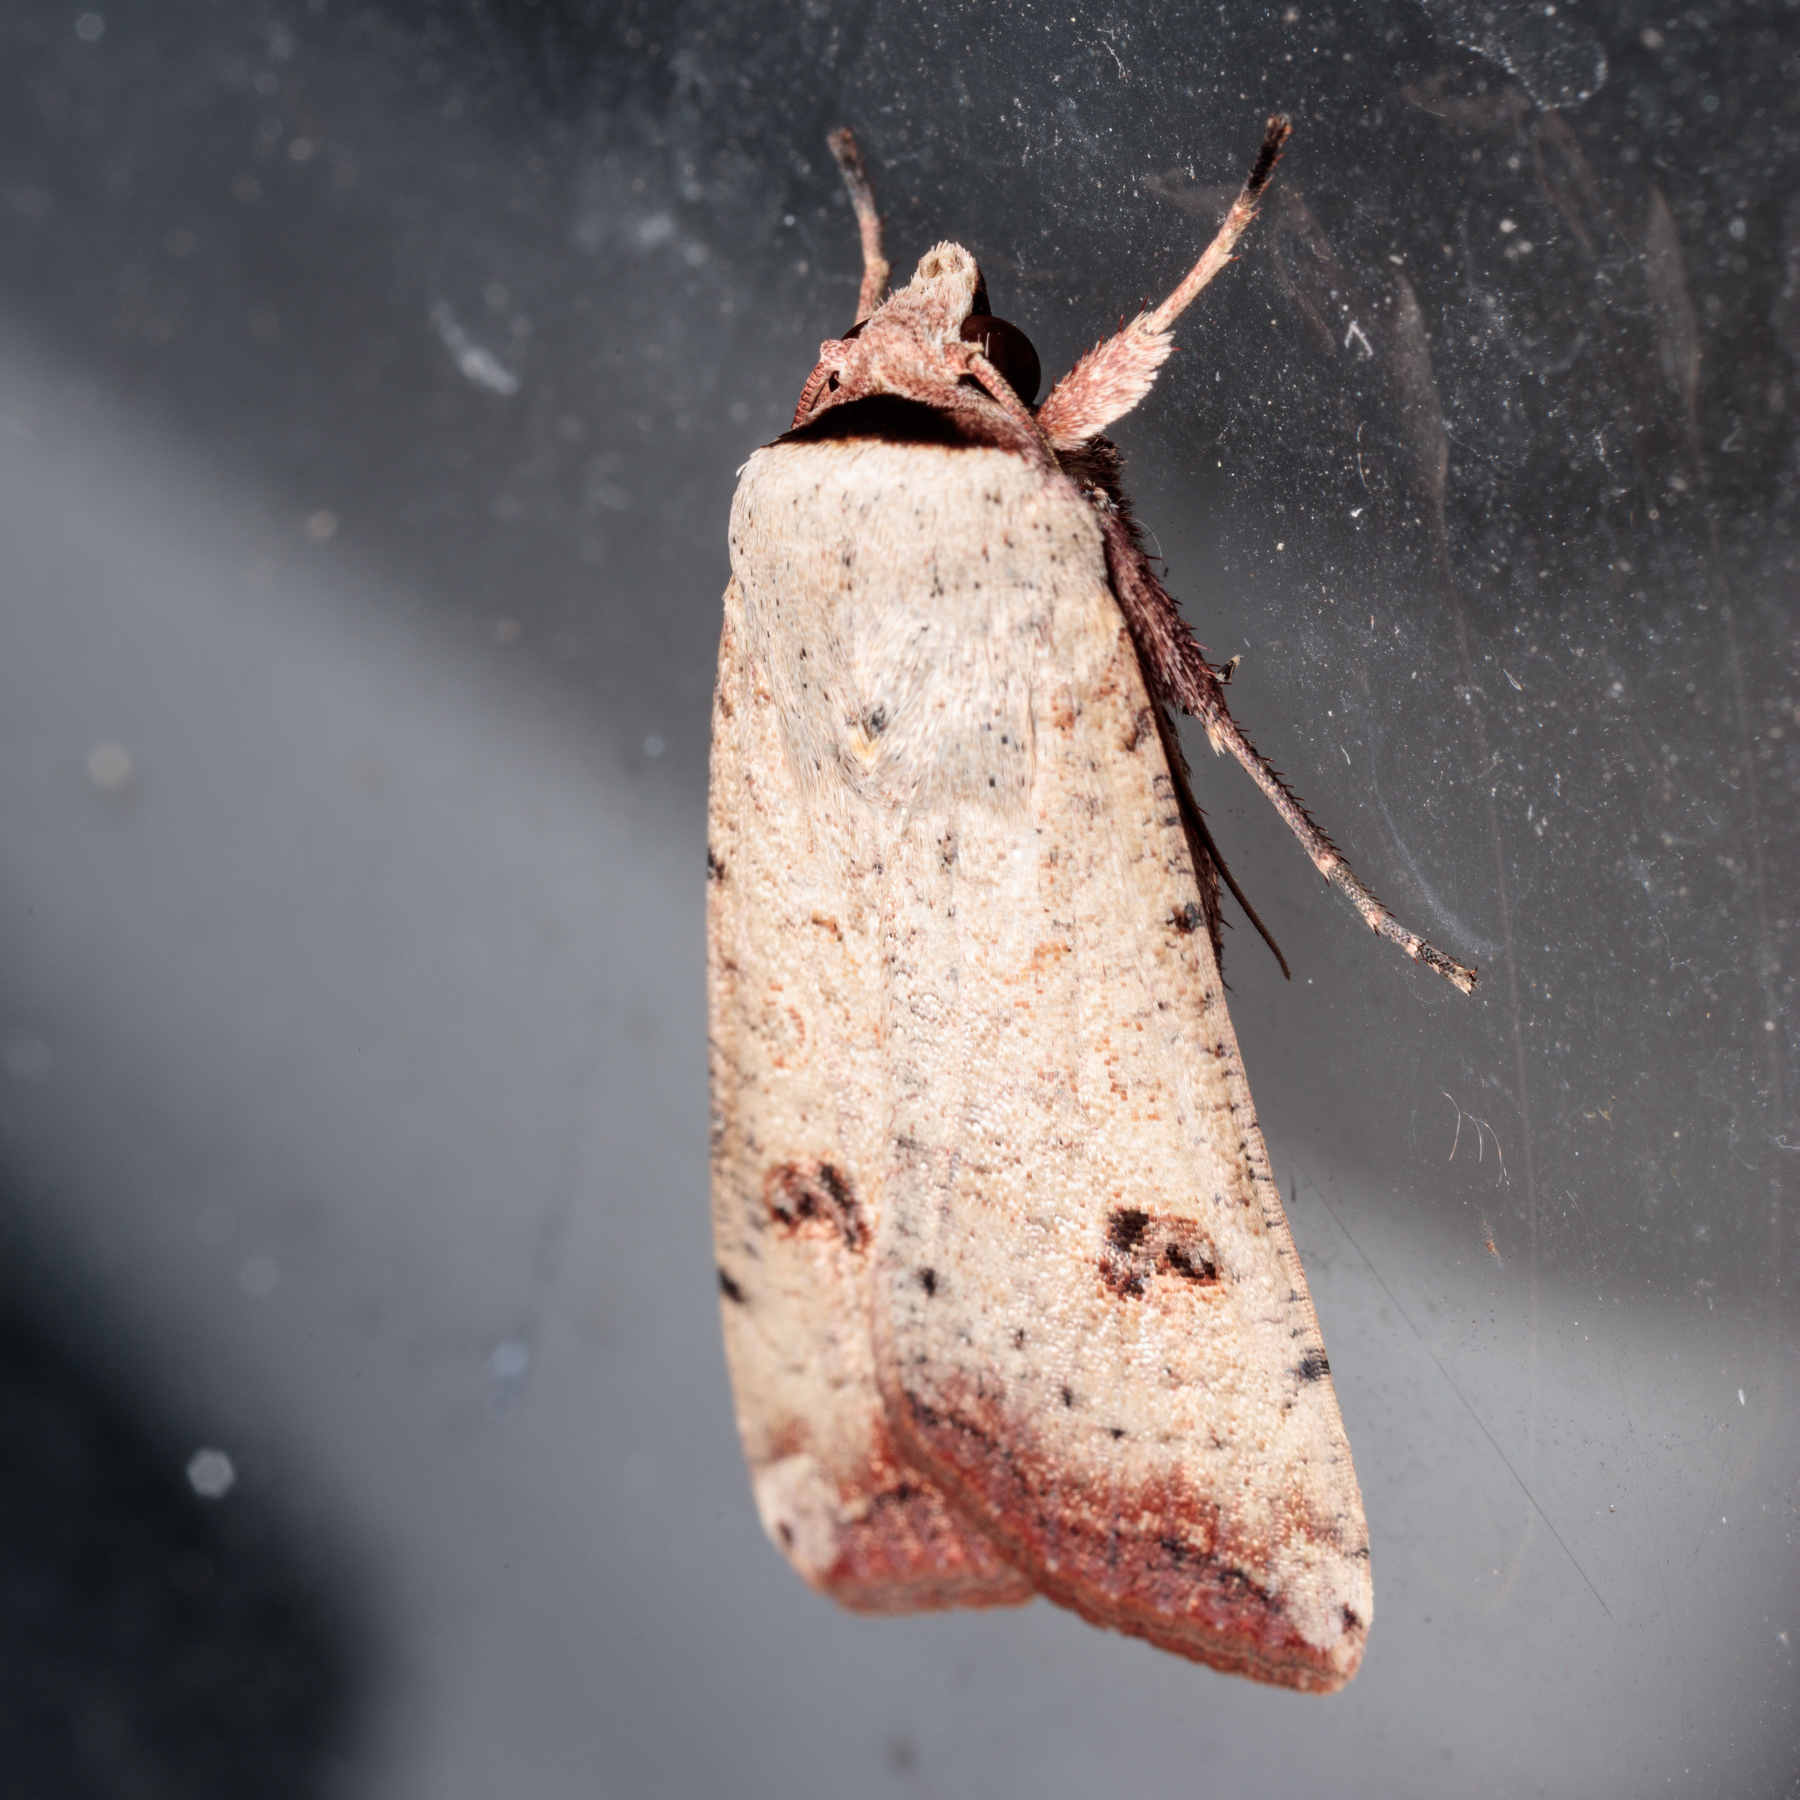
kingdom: Animalia
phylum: Arthropoda
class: Insecta
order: Lepidoptera
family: Noctuidae
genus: Anicla
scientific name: Anicla infecta
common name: Green cutworm
